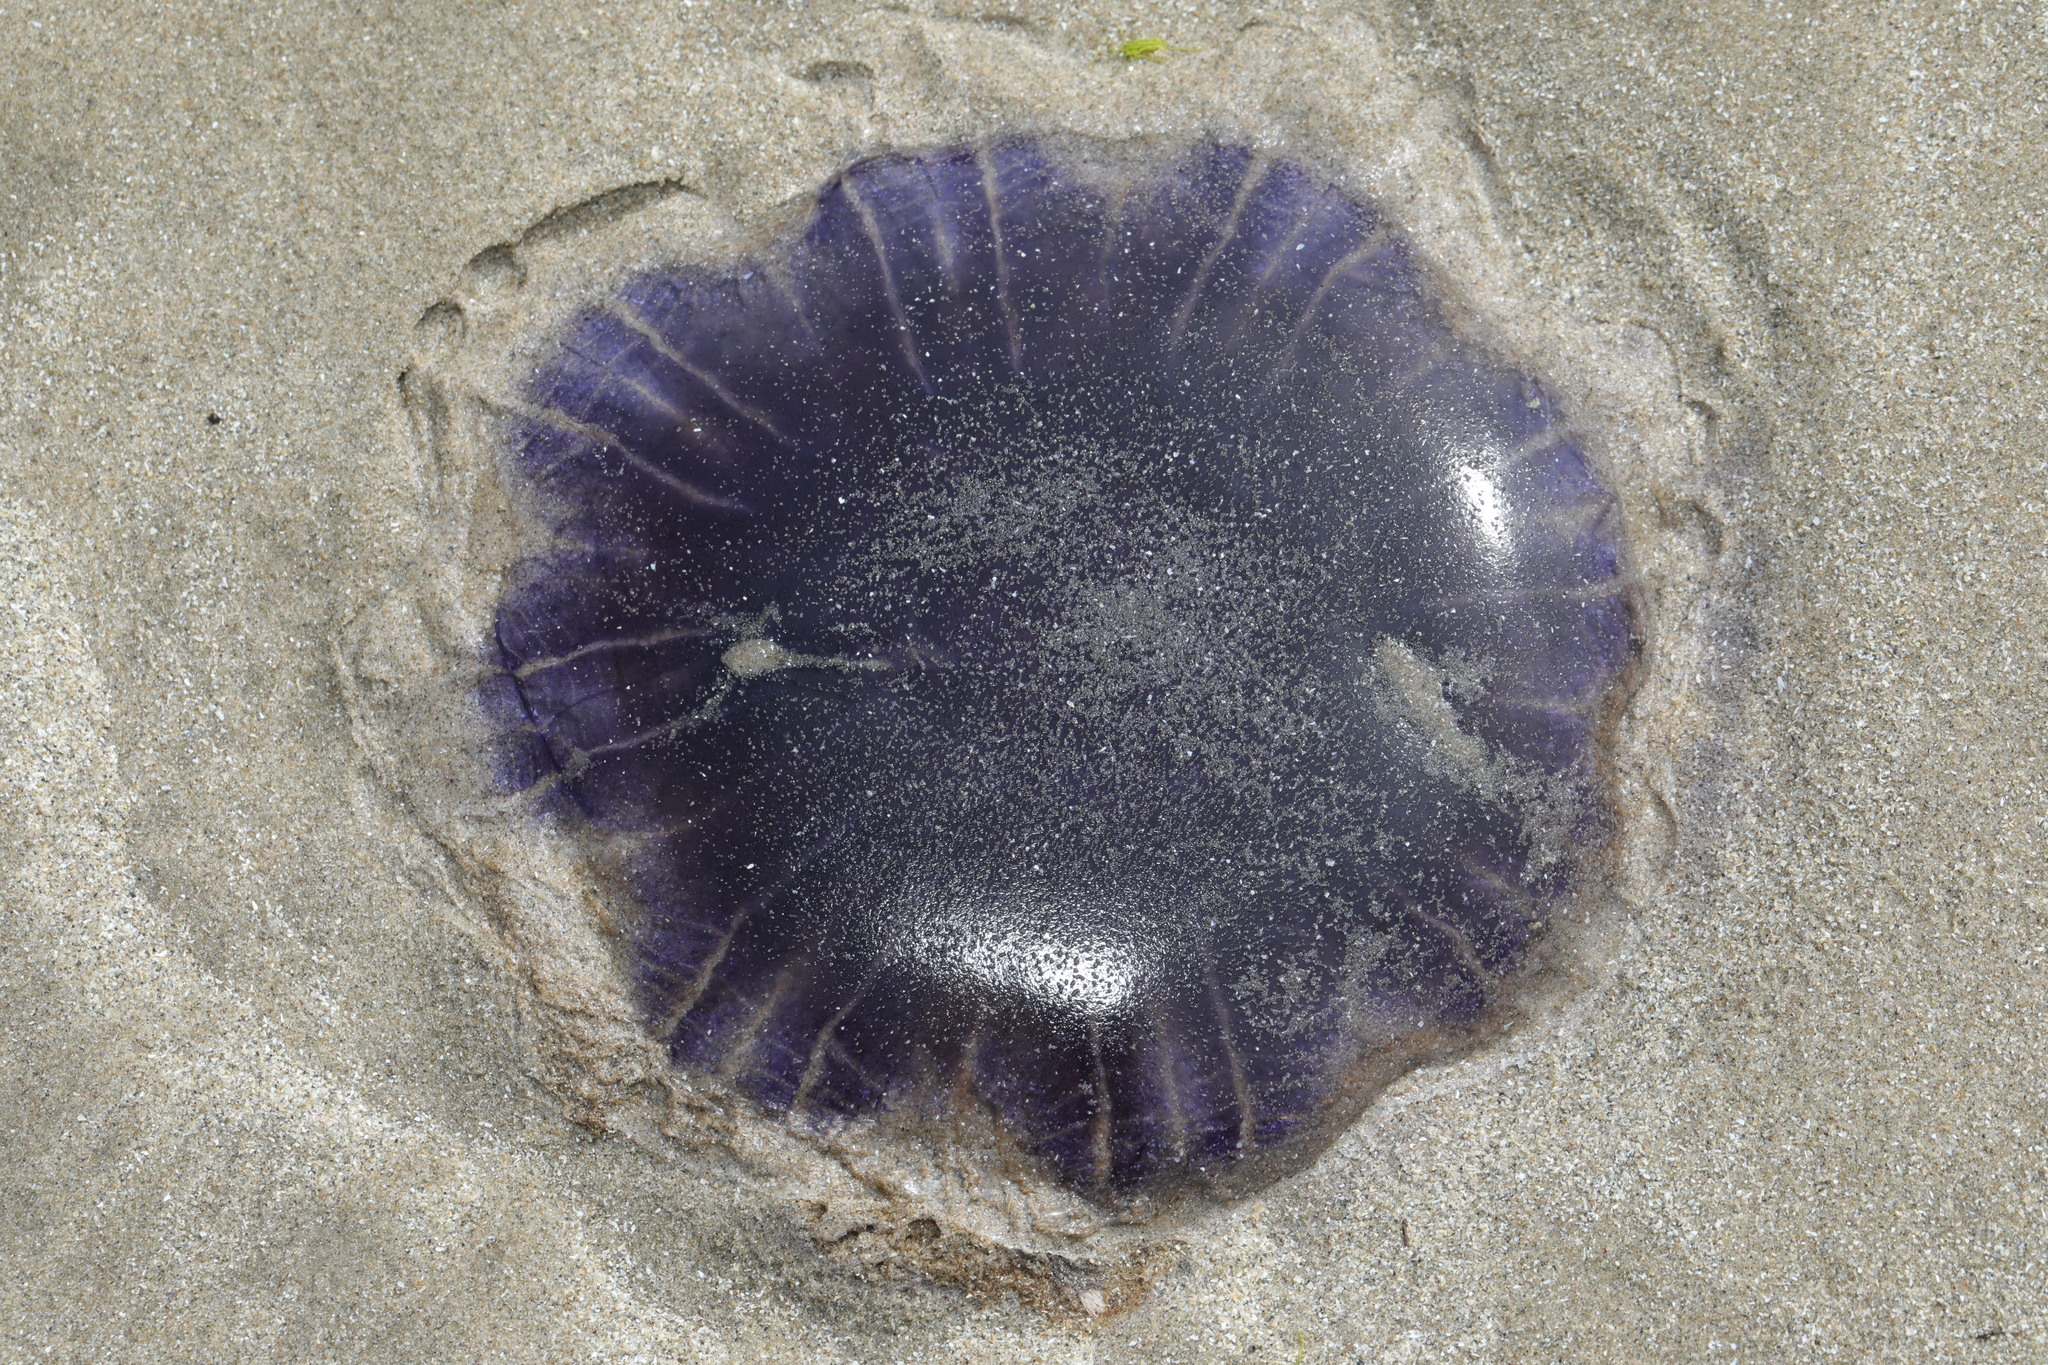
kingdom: Animalia
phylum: Cnidaria
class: Scyphozoa
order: Semaeostomeae
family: Cyaneidae
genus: Cyanea
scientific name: Cyanea lamarckii
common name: Blue jellyfish
